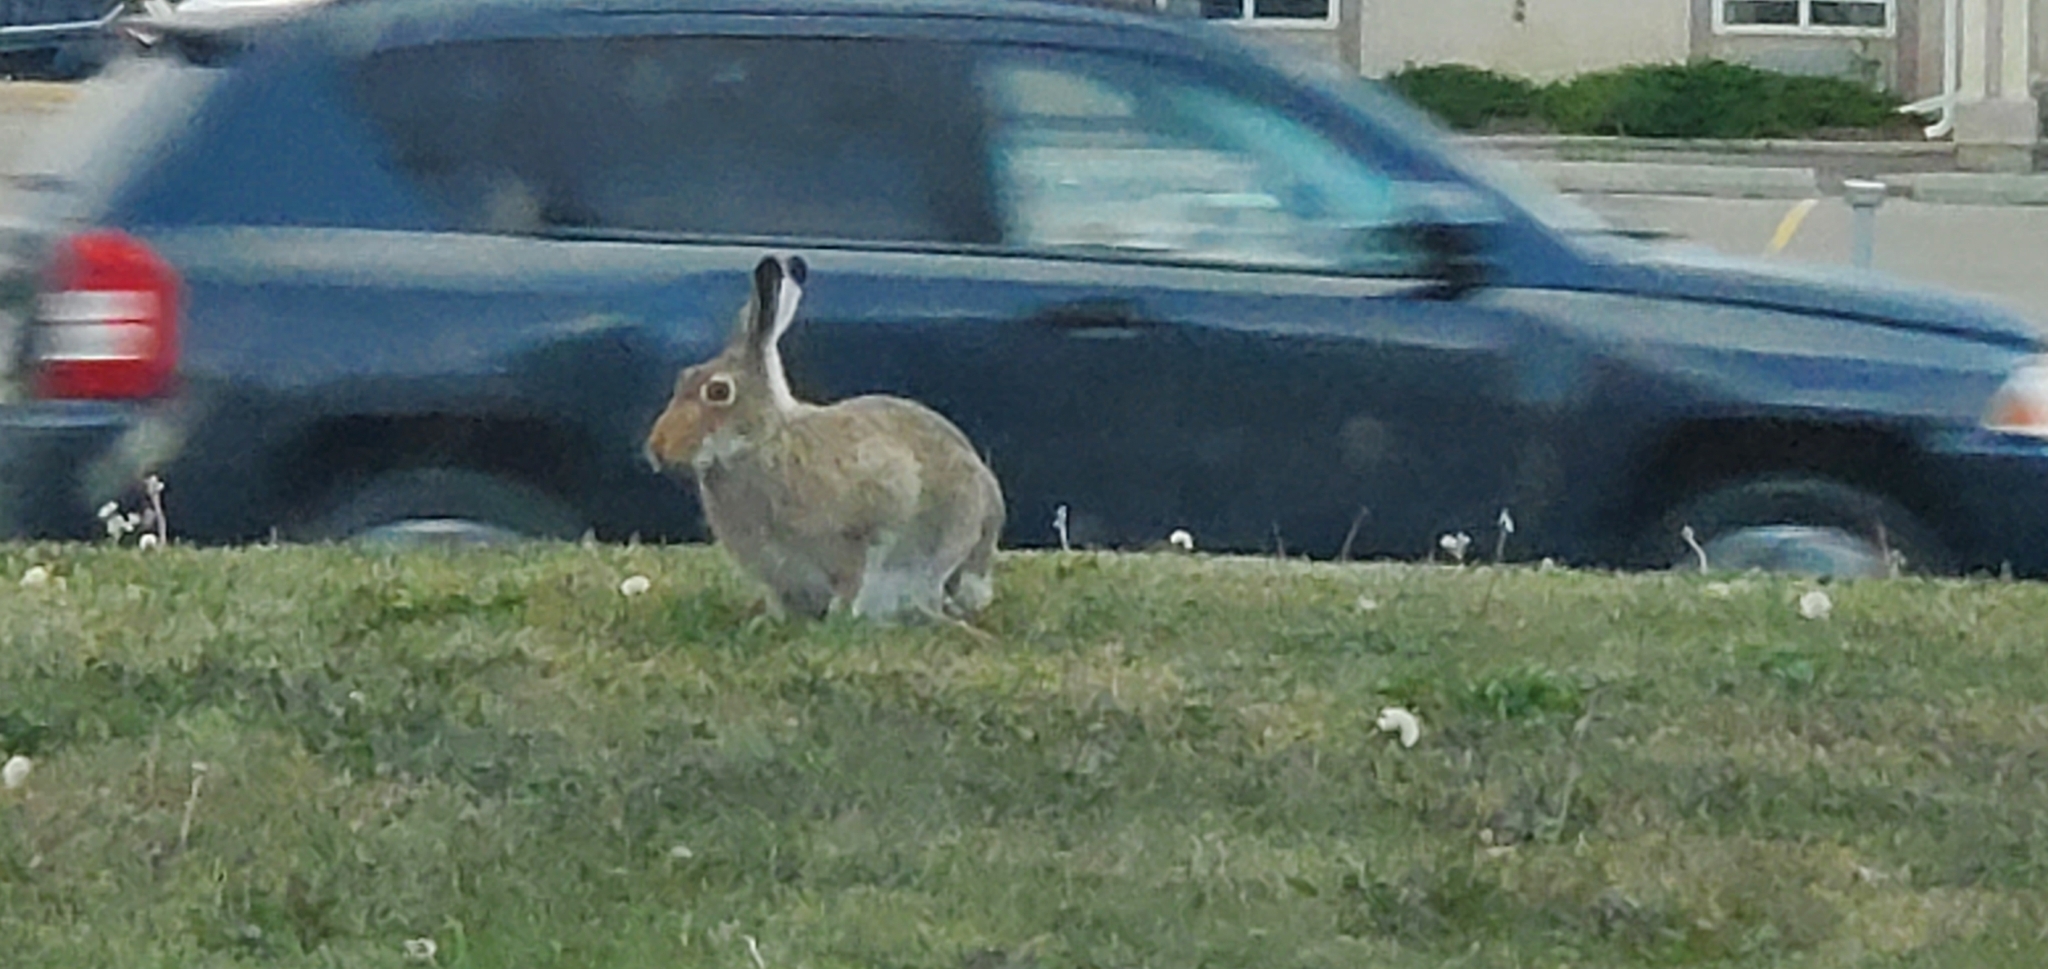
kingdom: Animalia
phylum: Chordata
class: Mammalia
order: Lagomorpha
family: Leporidae
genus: Lepus
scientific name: Lepus townsendii
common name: White-tailed jackrabbit
